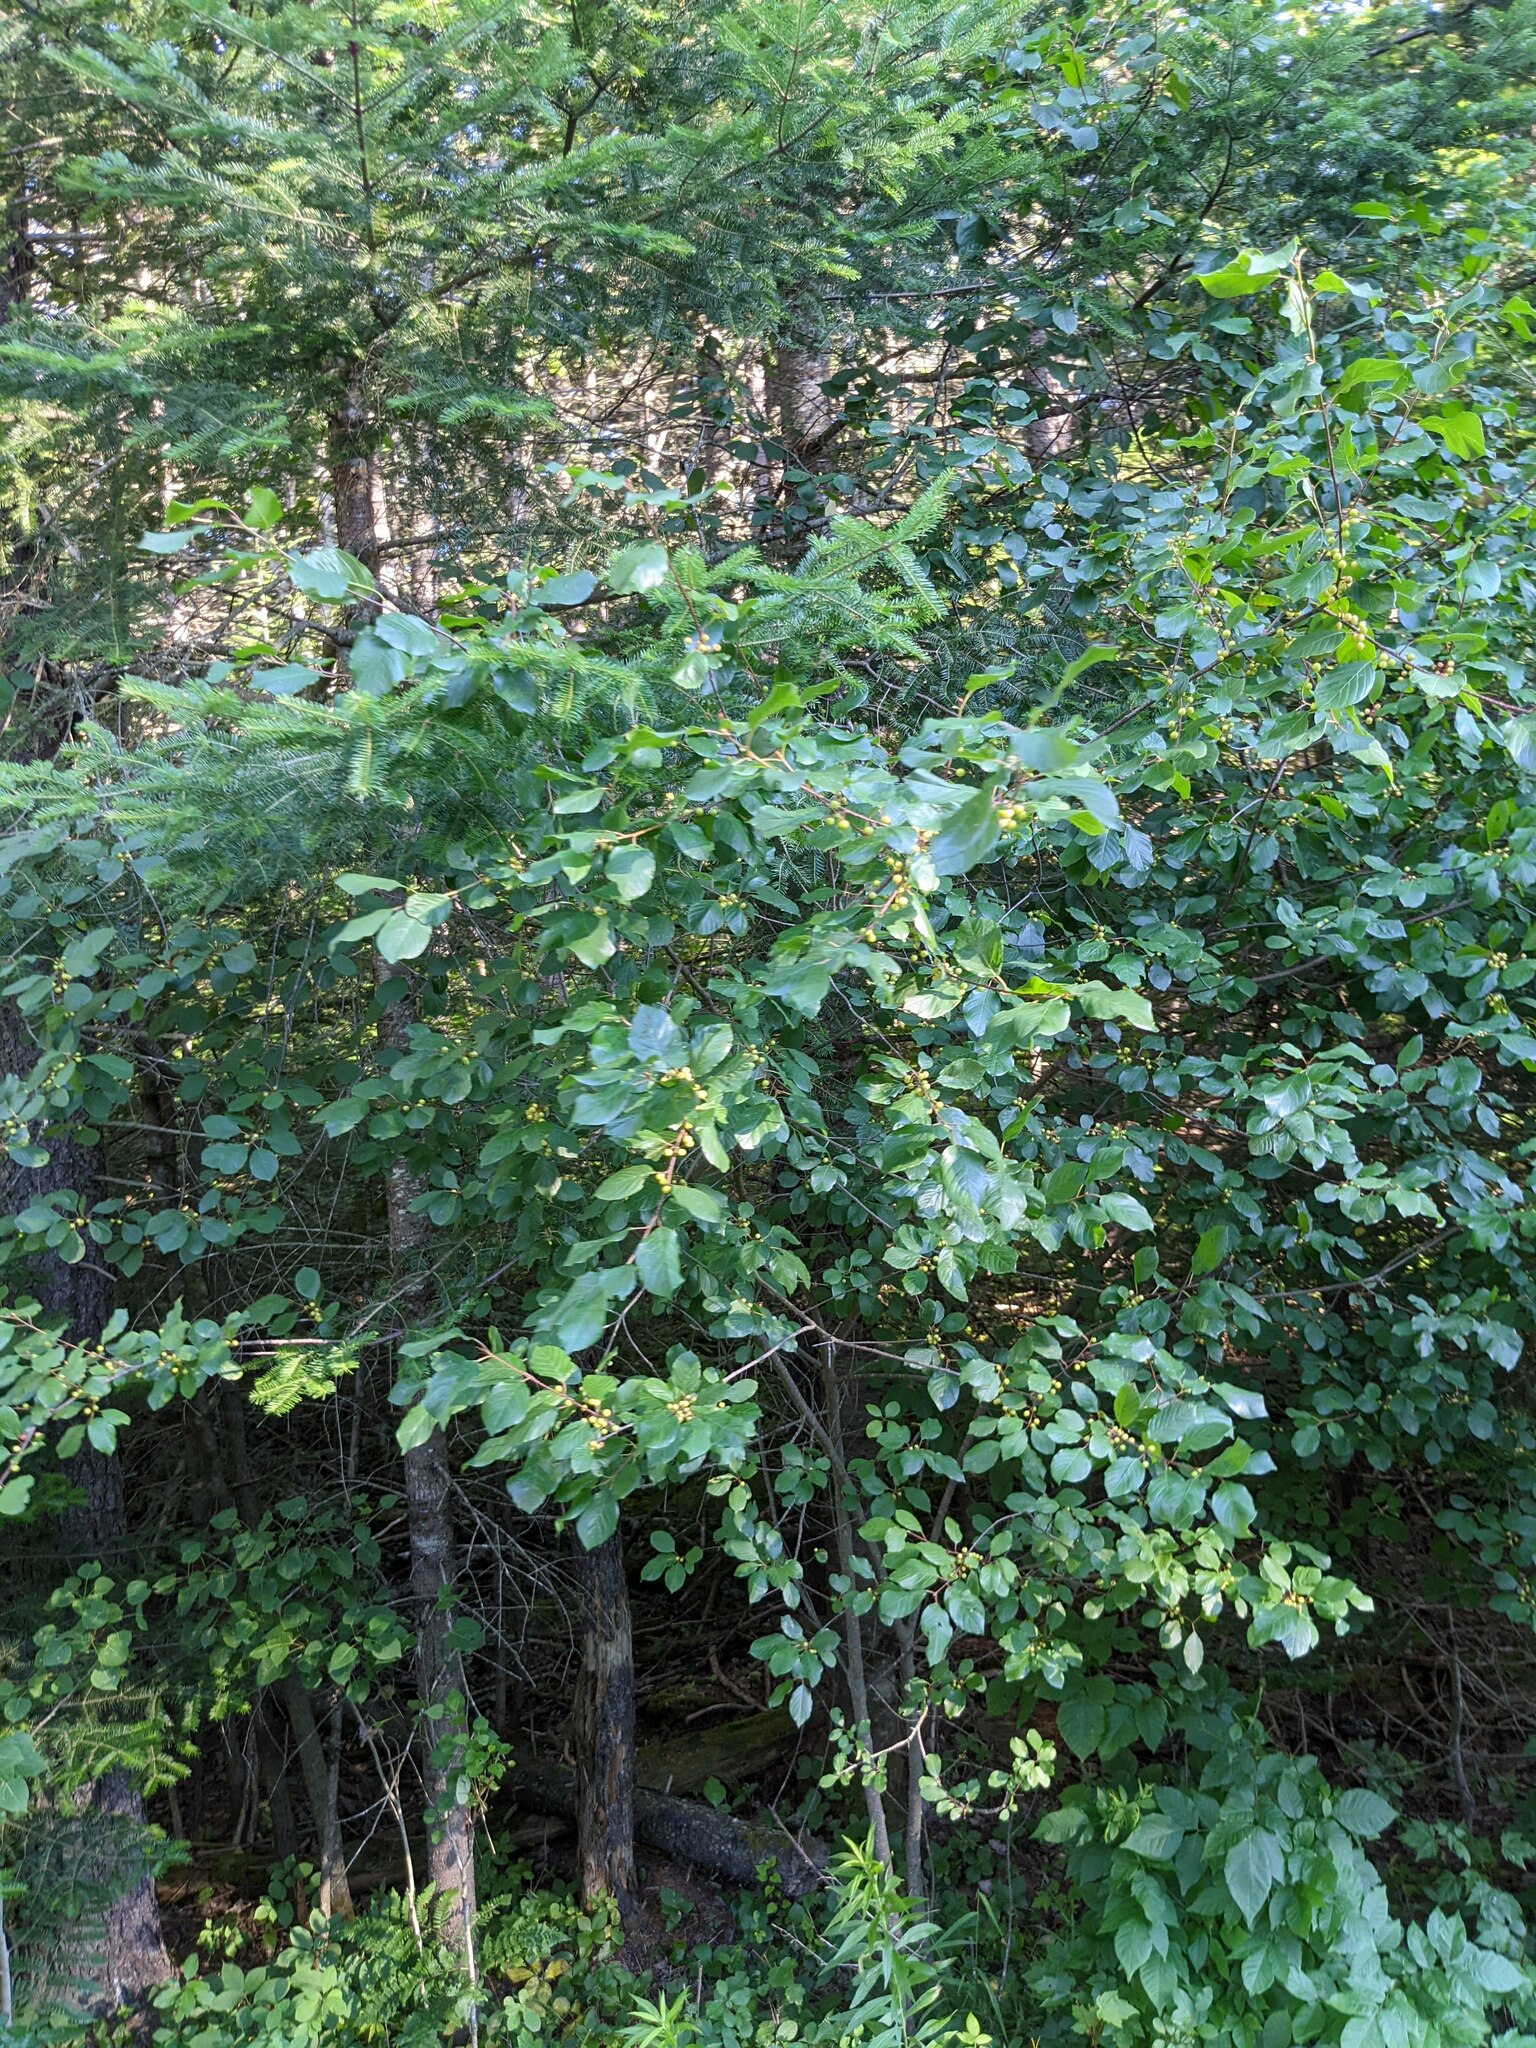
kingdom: Plantae
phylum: Tracheophyta
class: Magnoliopsida
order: Rosales
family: Rhamnaceae
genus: Frangula
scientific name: Frangula alnus
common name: Alder buckthorn
